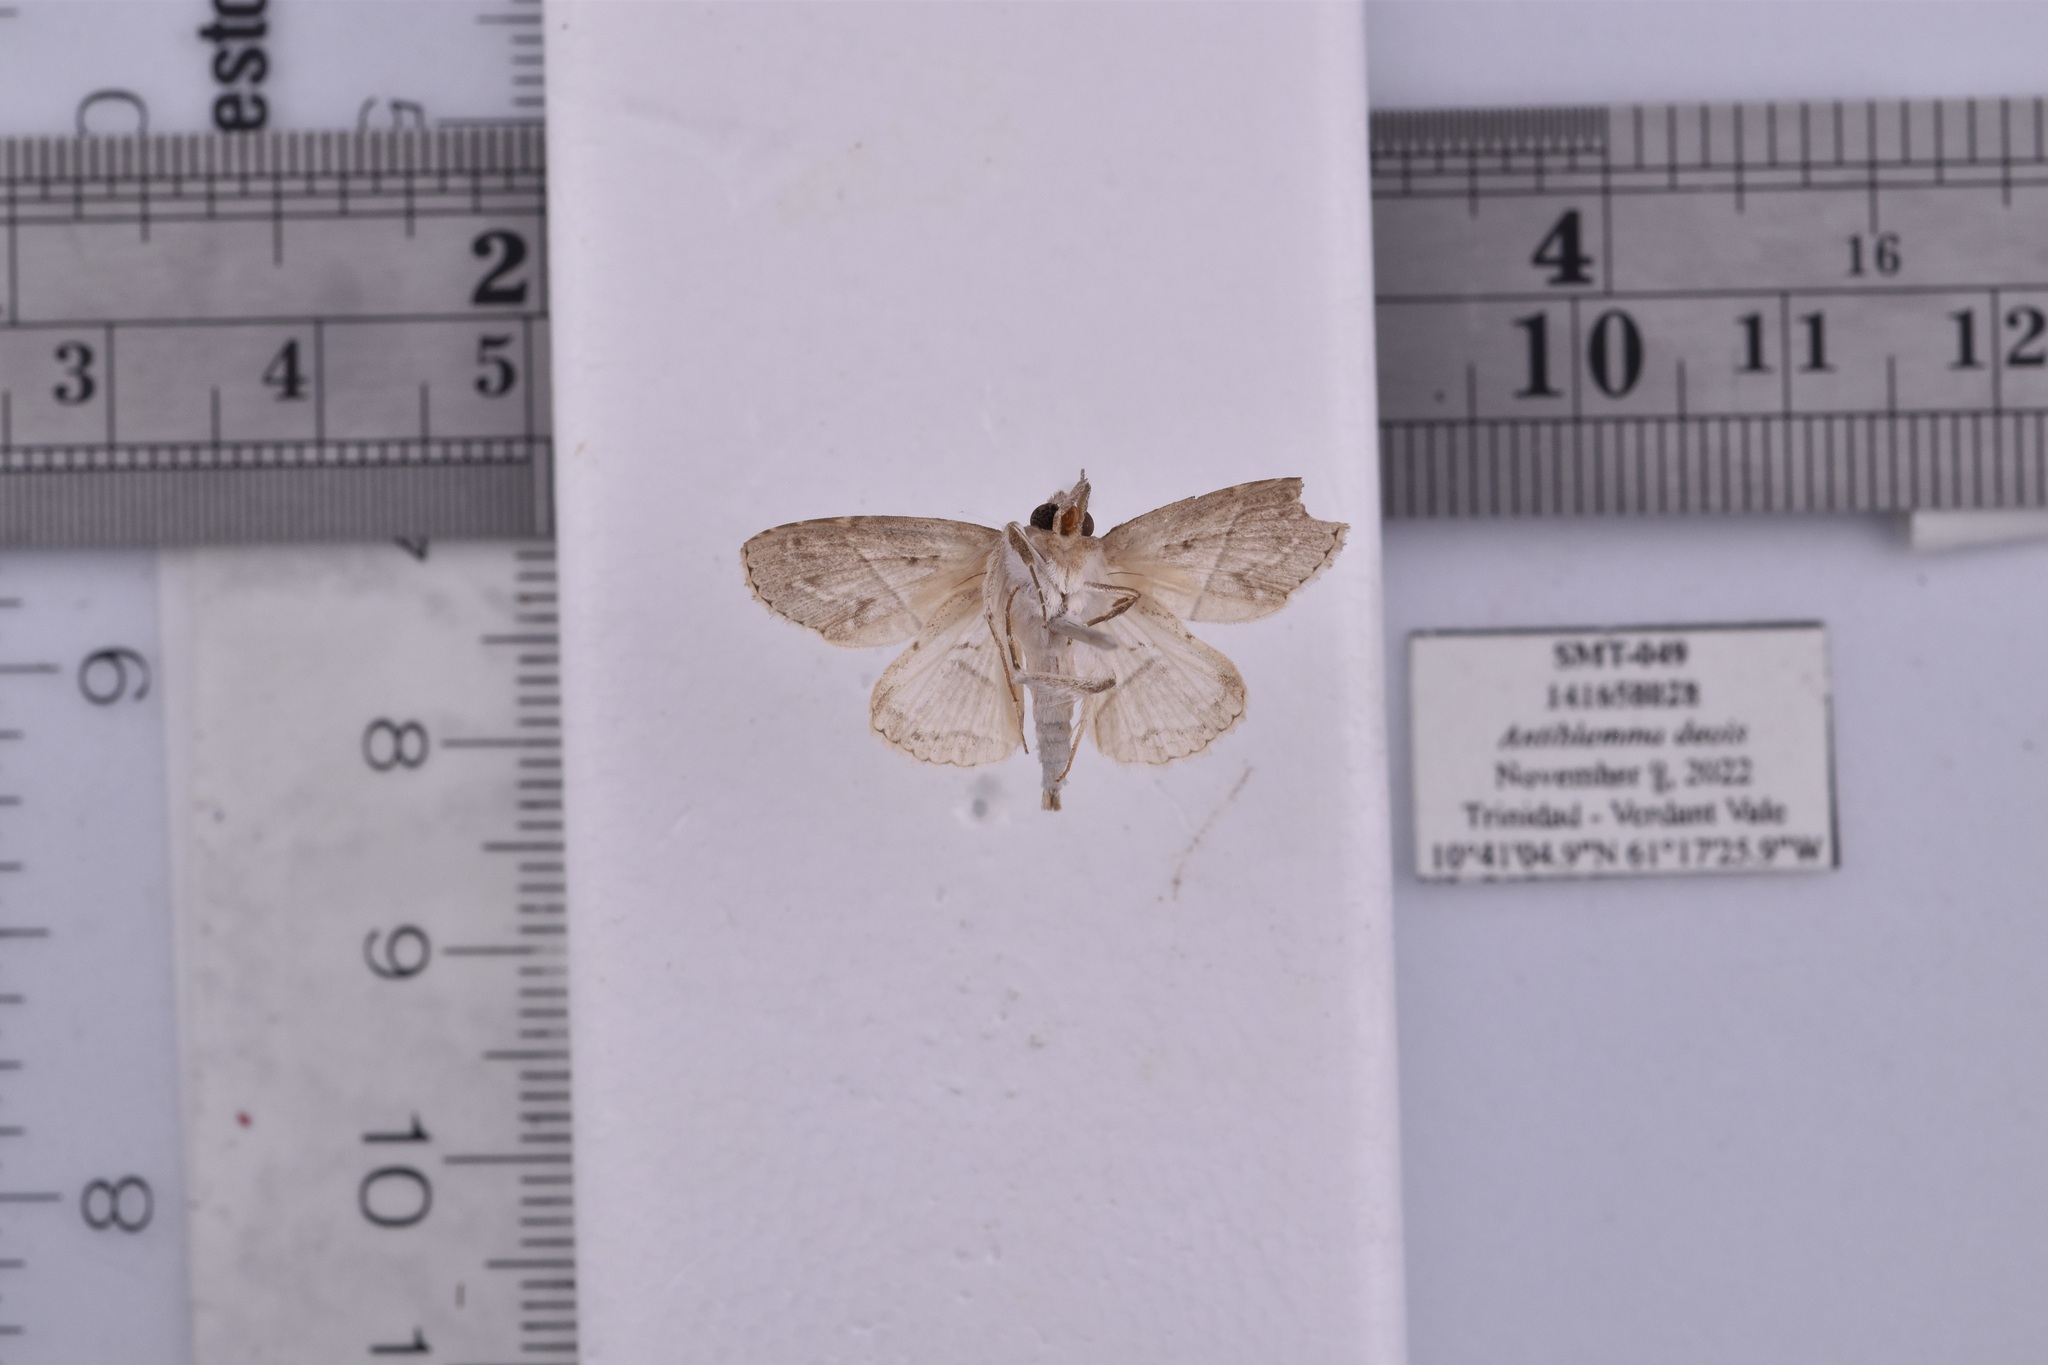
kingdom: Animalia
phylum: Arthropoda
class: Insecta
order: Lepidoptera
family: Erebidae
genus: Antiblemma
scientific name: Antiblemma deois
